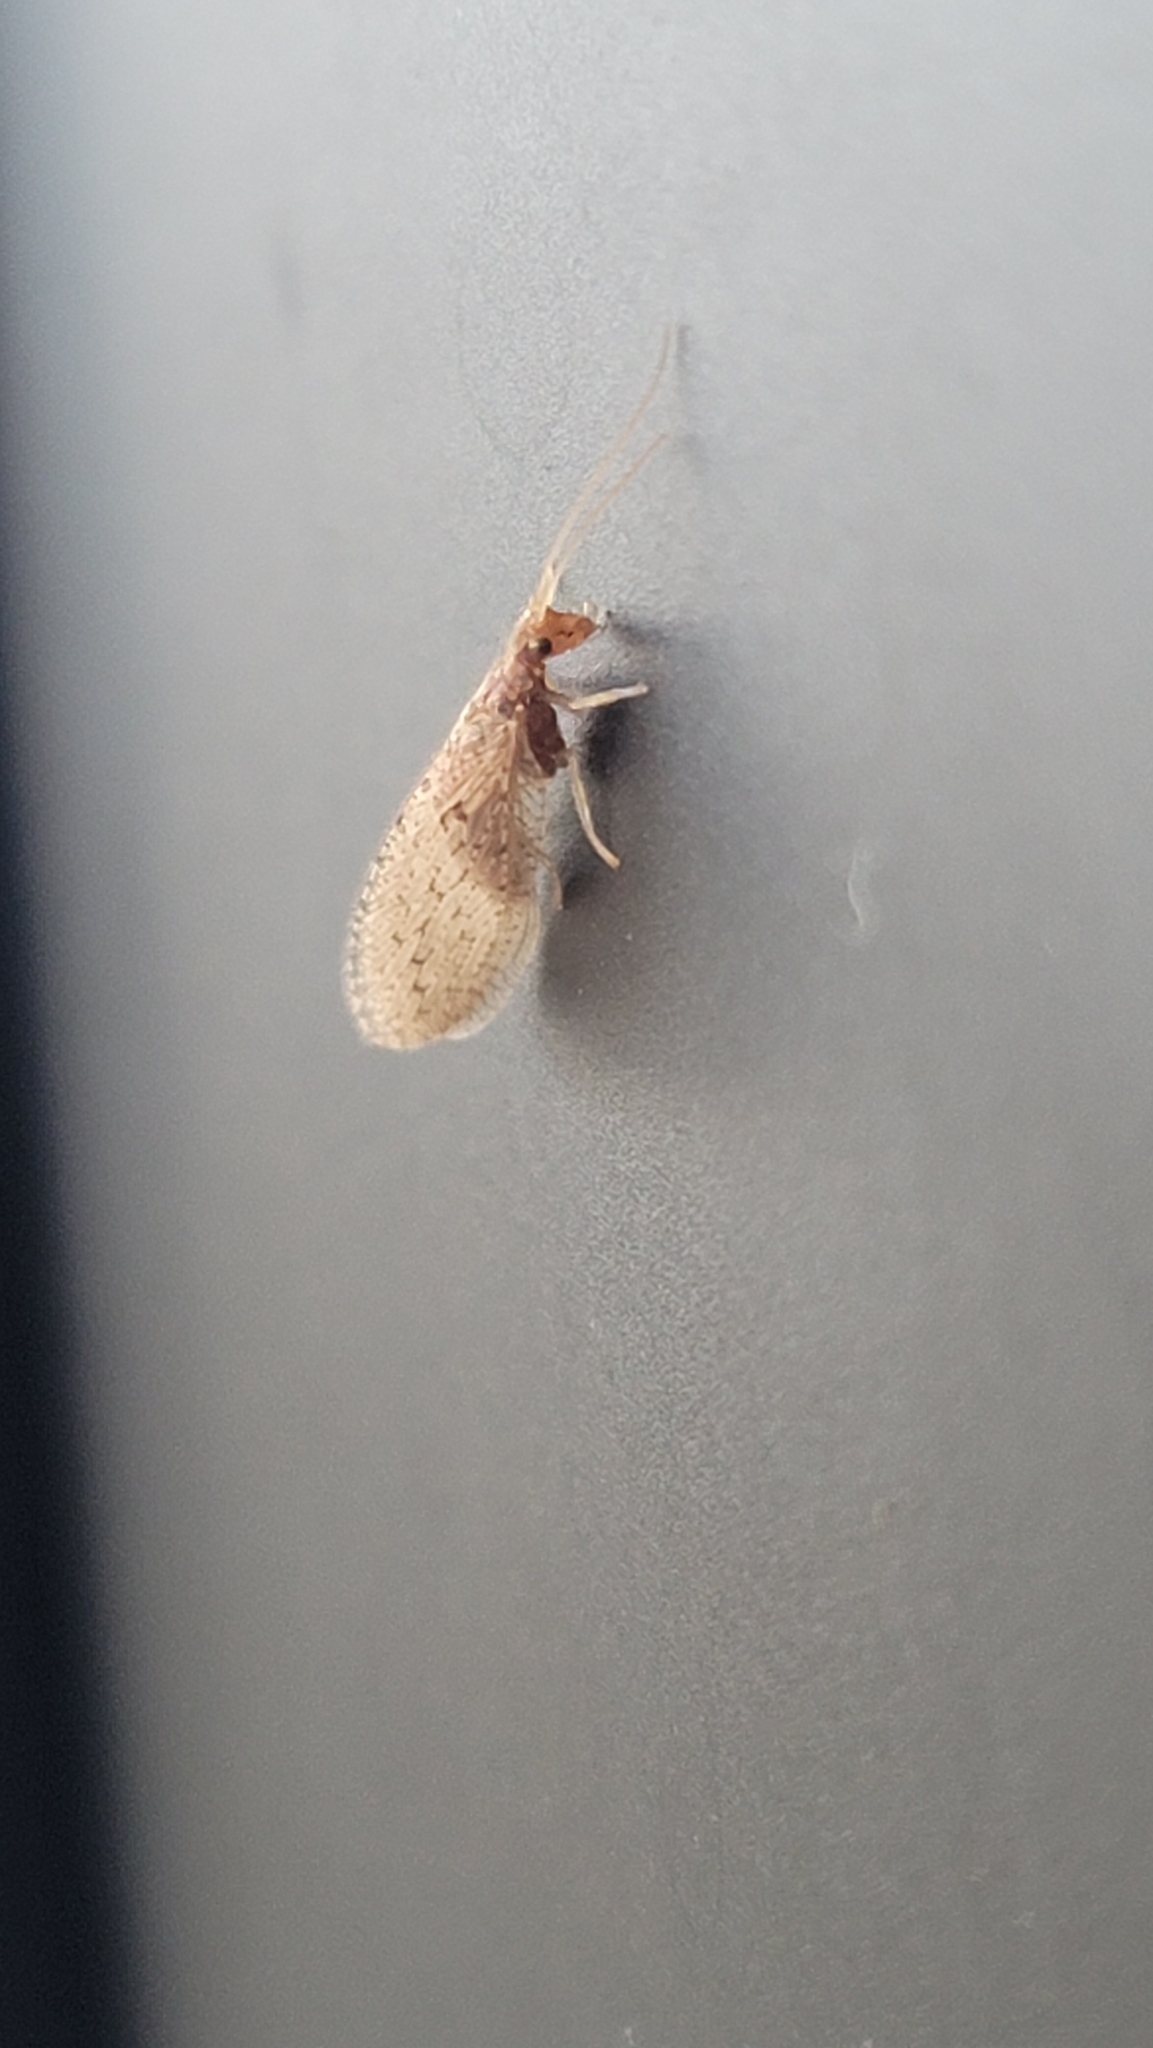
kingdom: Animalia
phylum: Arthropoda
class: Insecta
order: Neuroptera
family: Hemerobiidae
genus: Micromus
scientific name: Micromus subanticus
